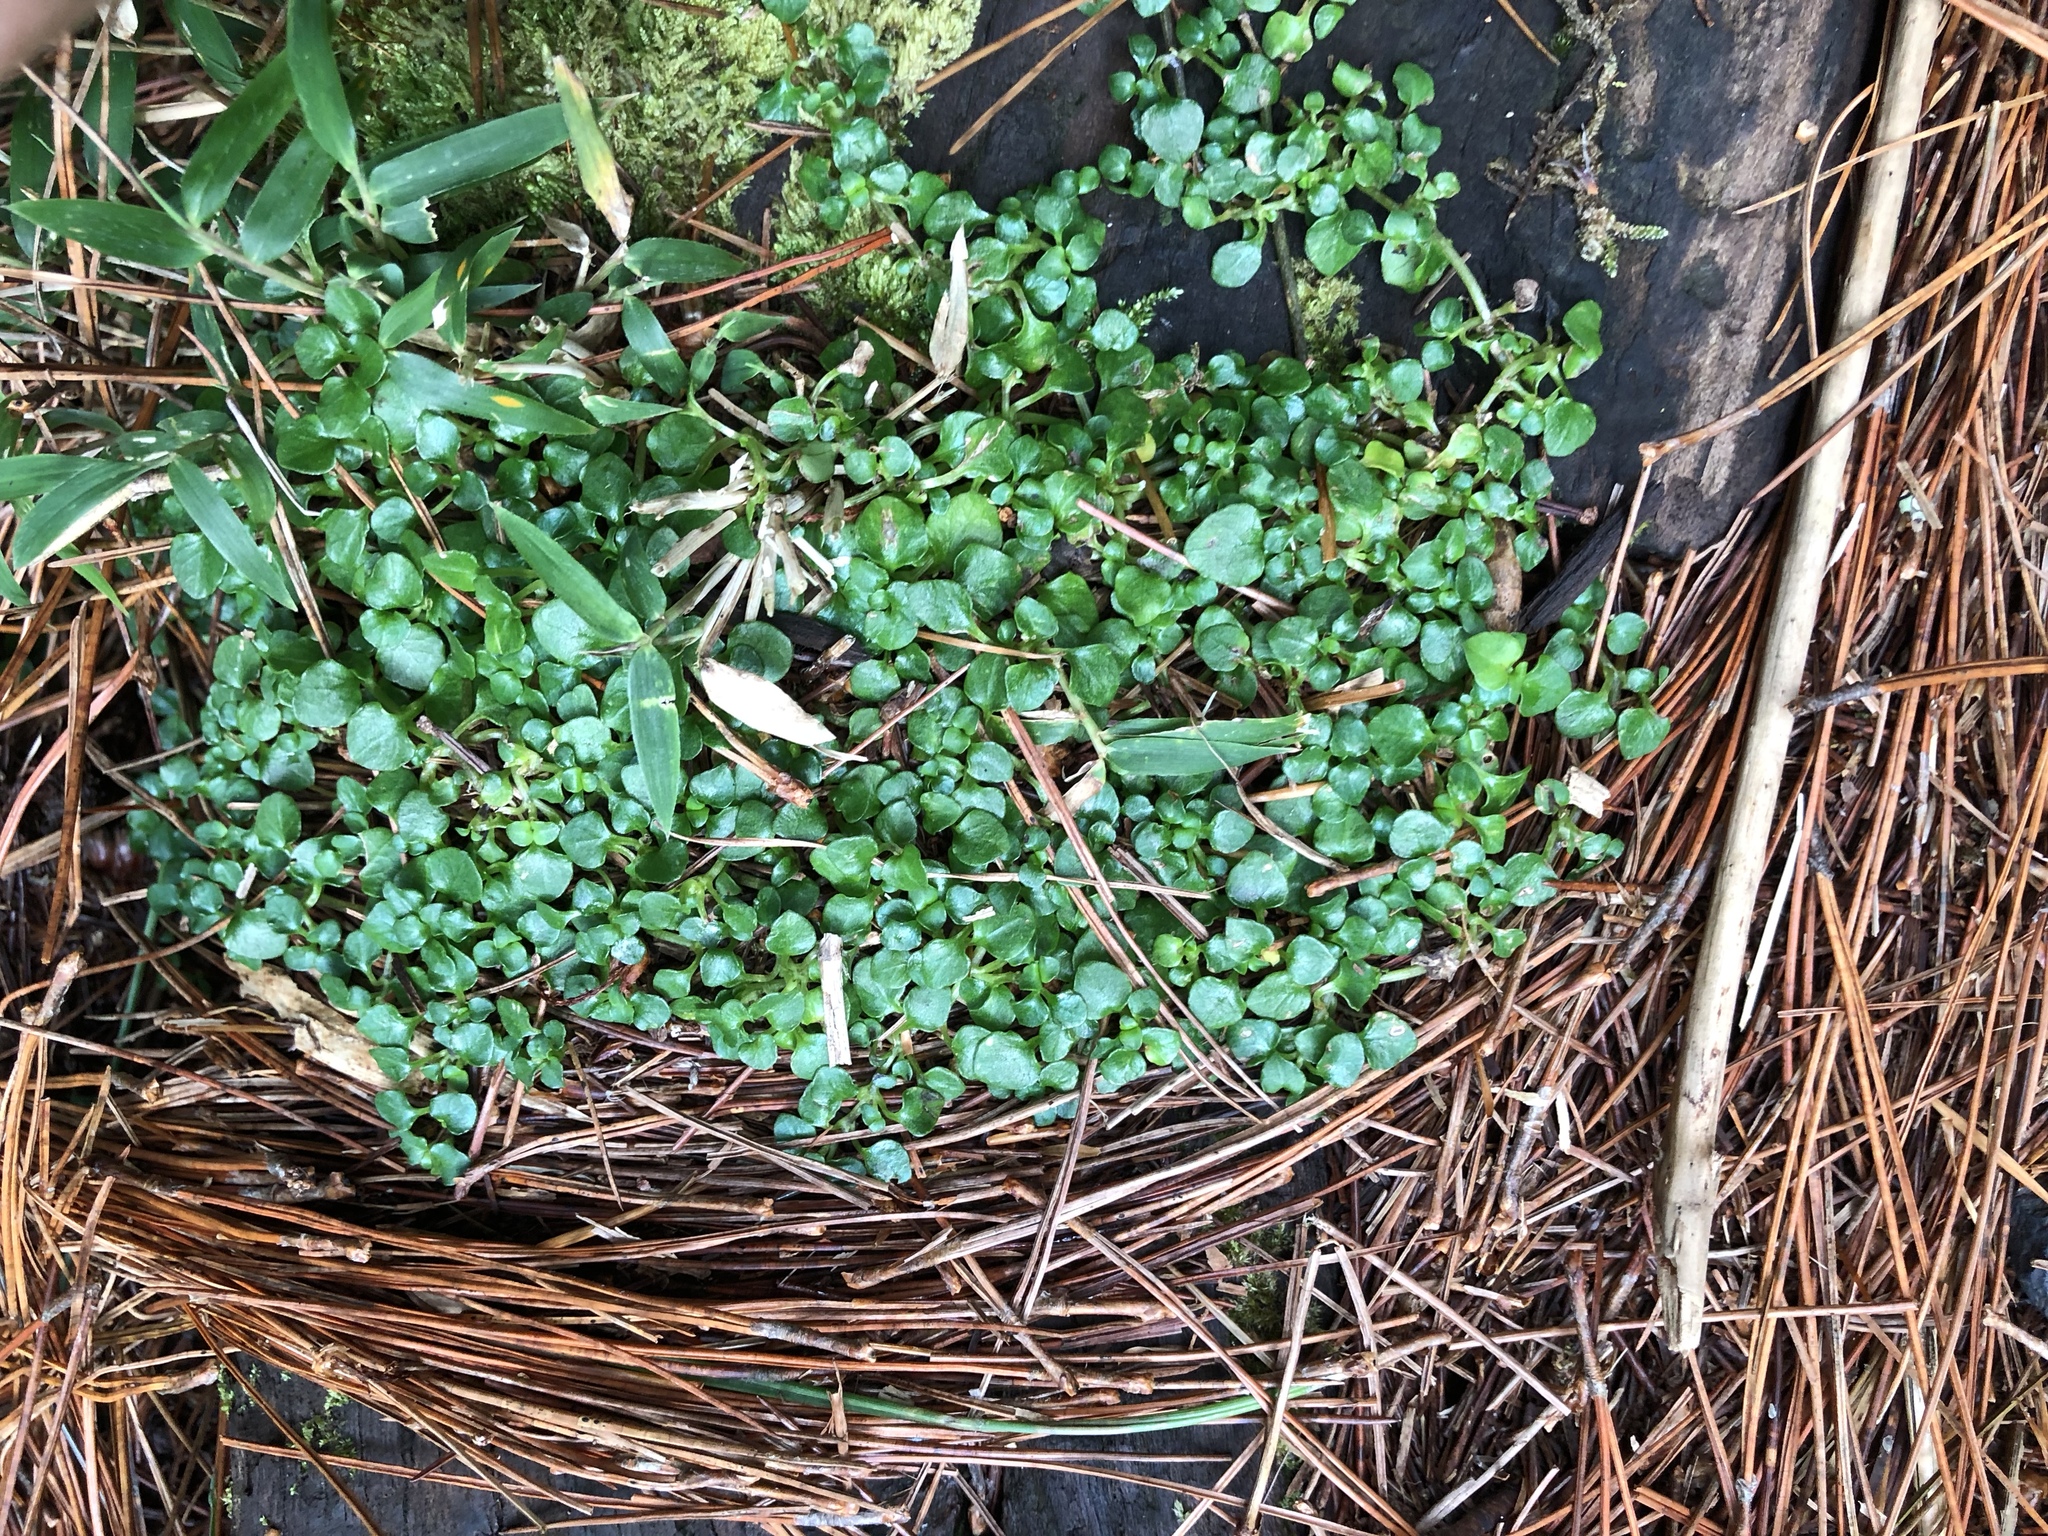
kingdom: Plantae
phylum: Tracheophyta
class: Magnoliopsida
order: Gentianales
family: Rubiaceae
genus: Nertera
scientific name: Nertera nigricarpa
